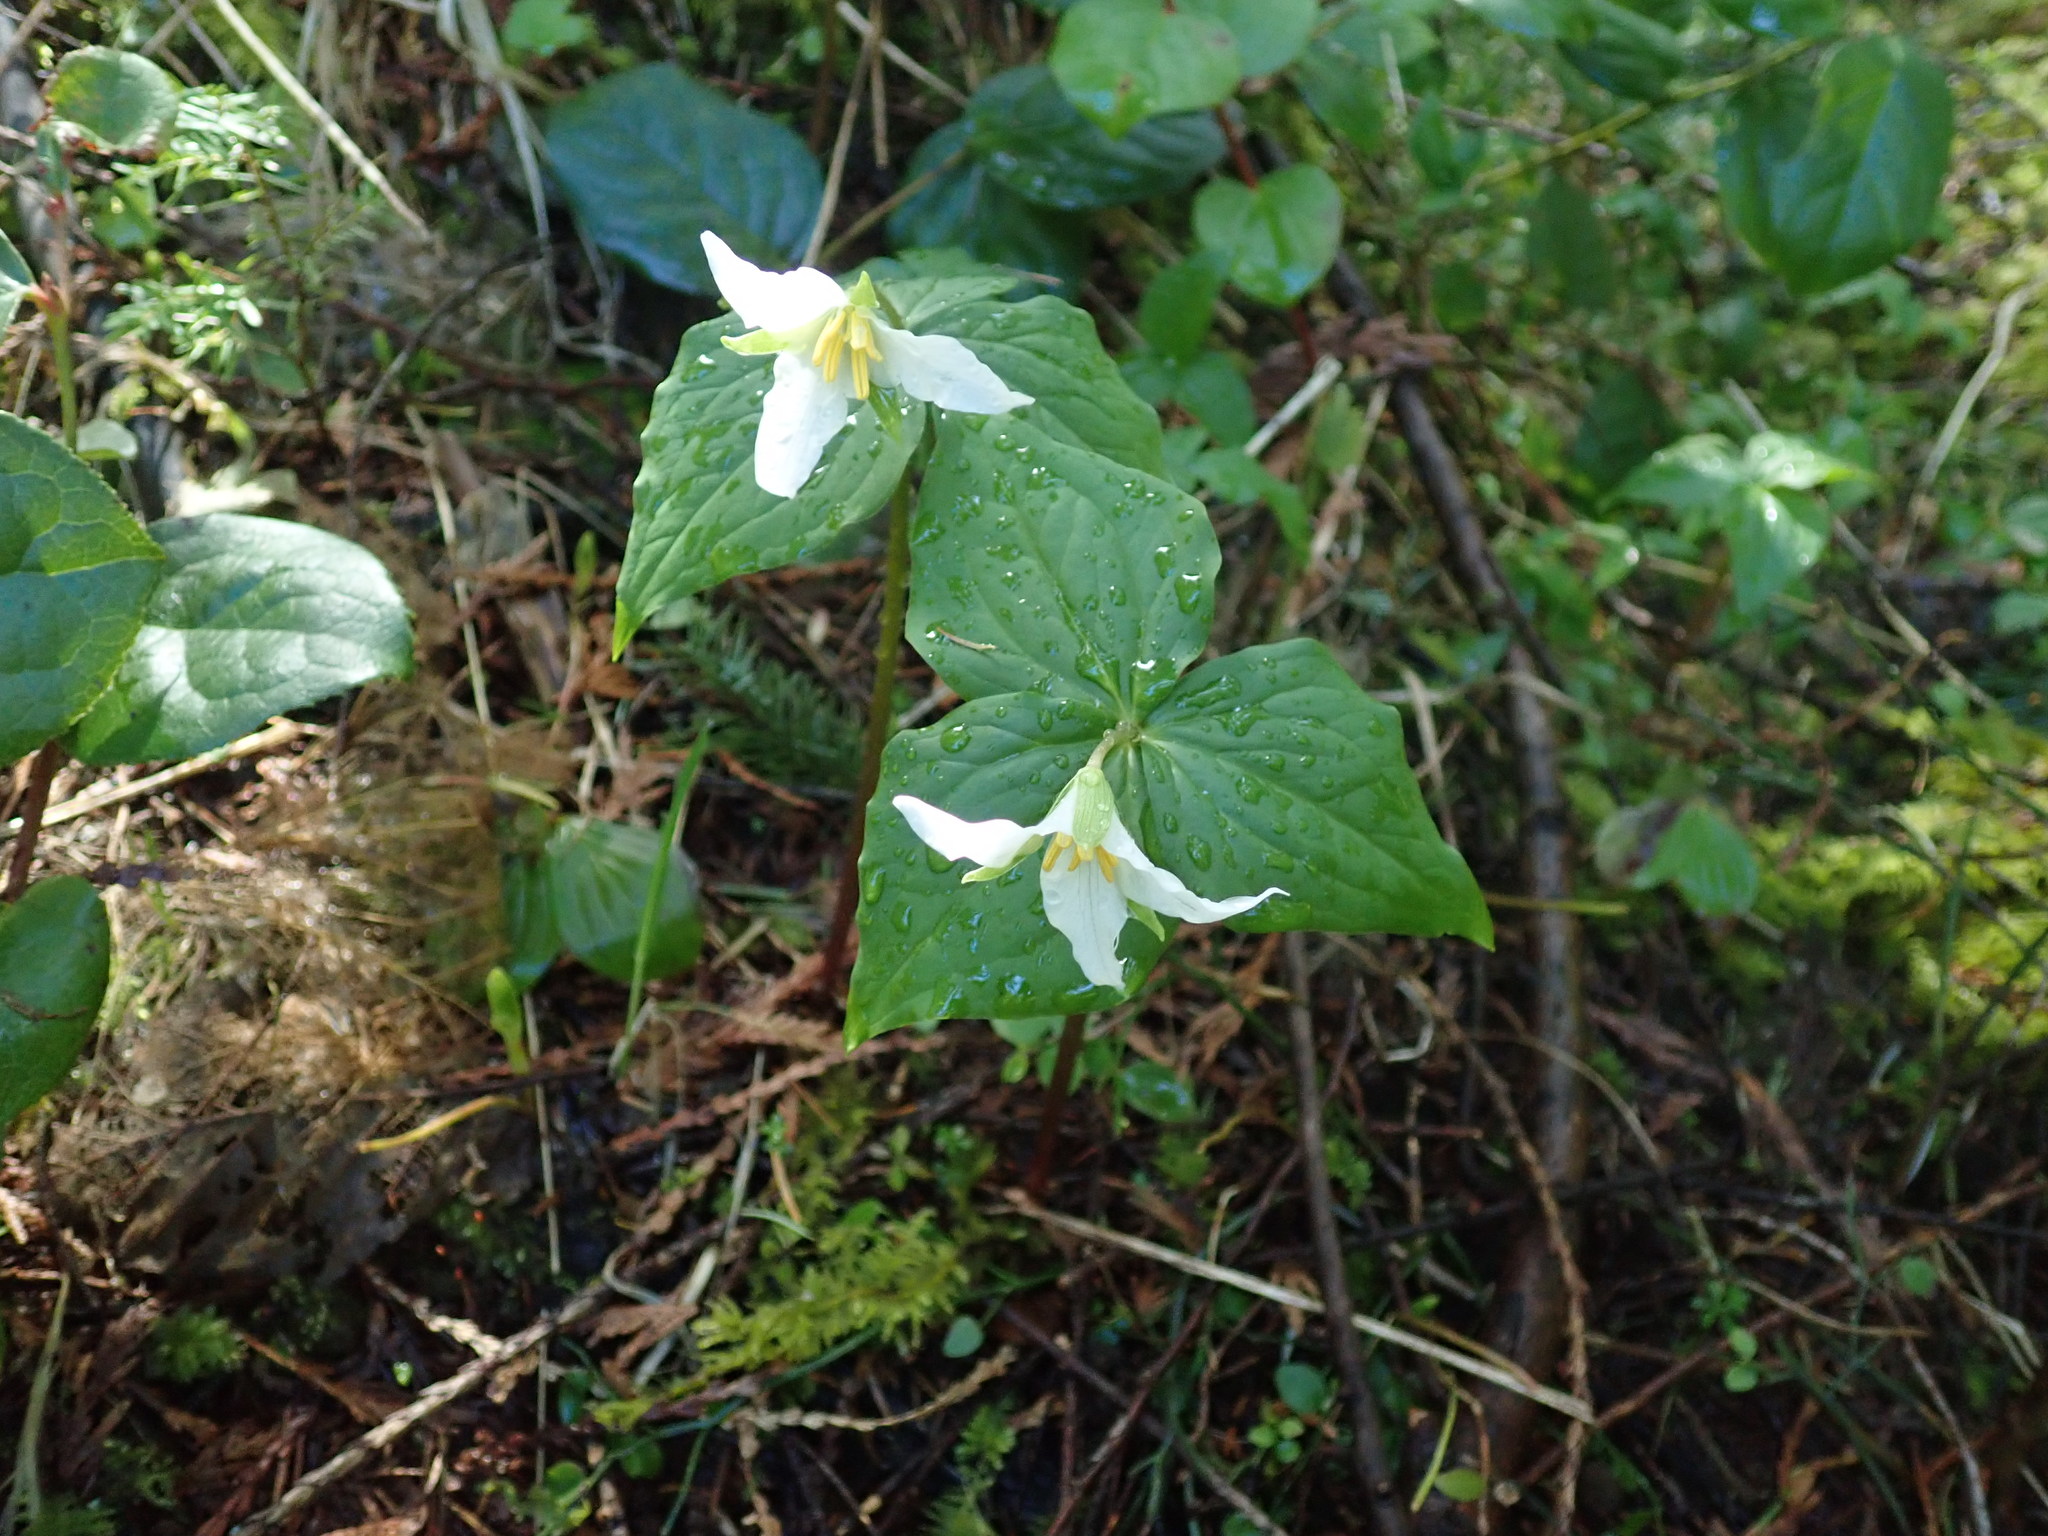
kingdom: Plantae
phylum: Tracheophyta
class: Liliopsida
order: Liliales
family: Melanthiaceae
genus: Trillium
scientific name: Trillium ovatum
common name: Pacific trillium
